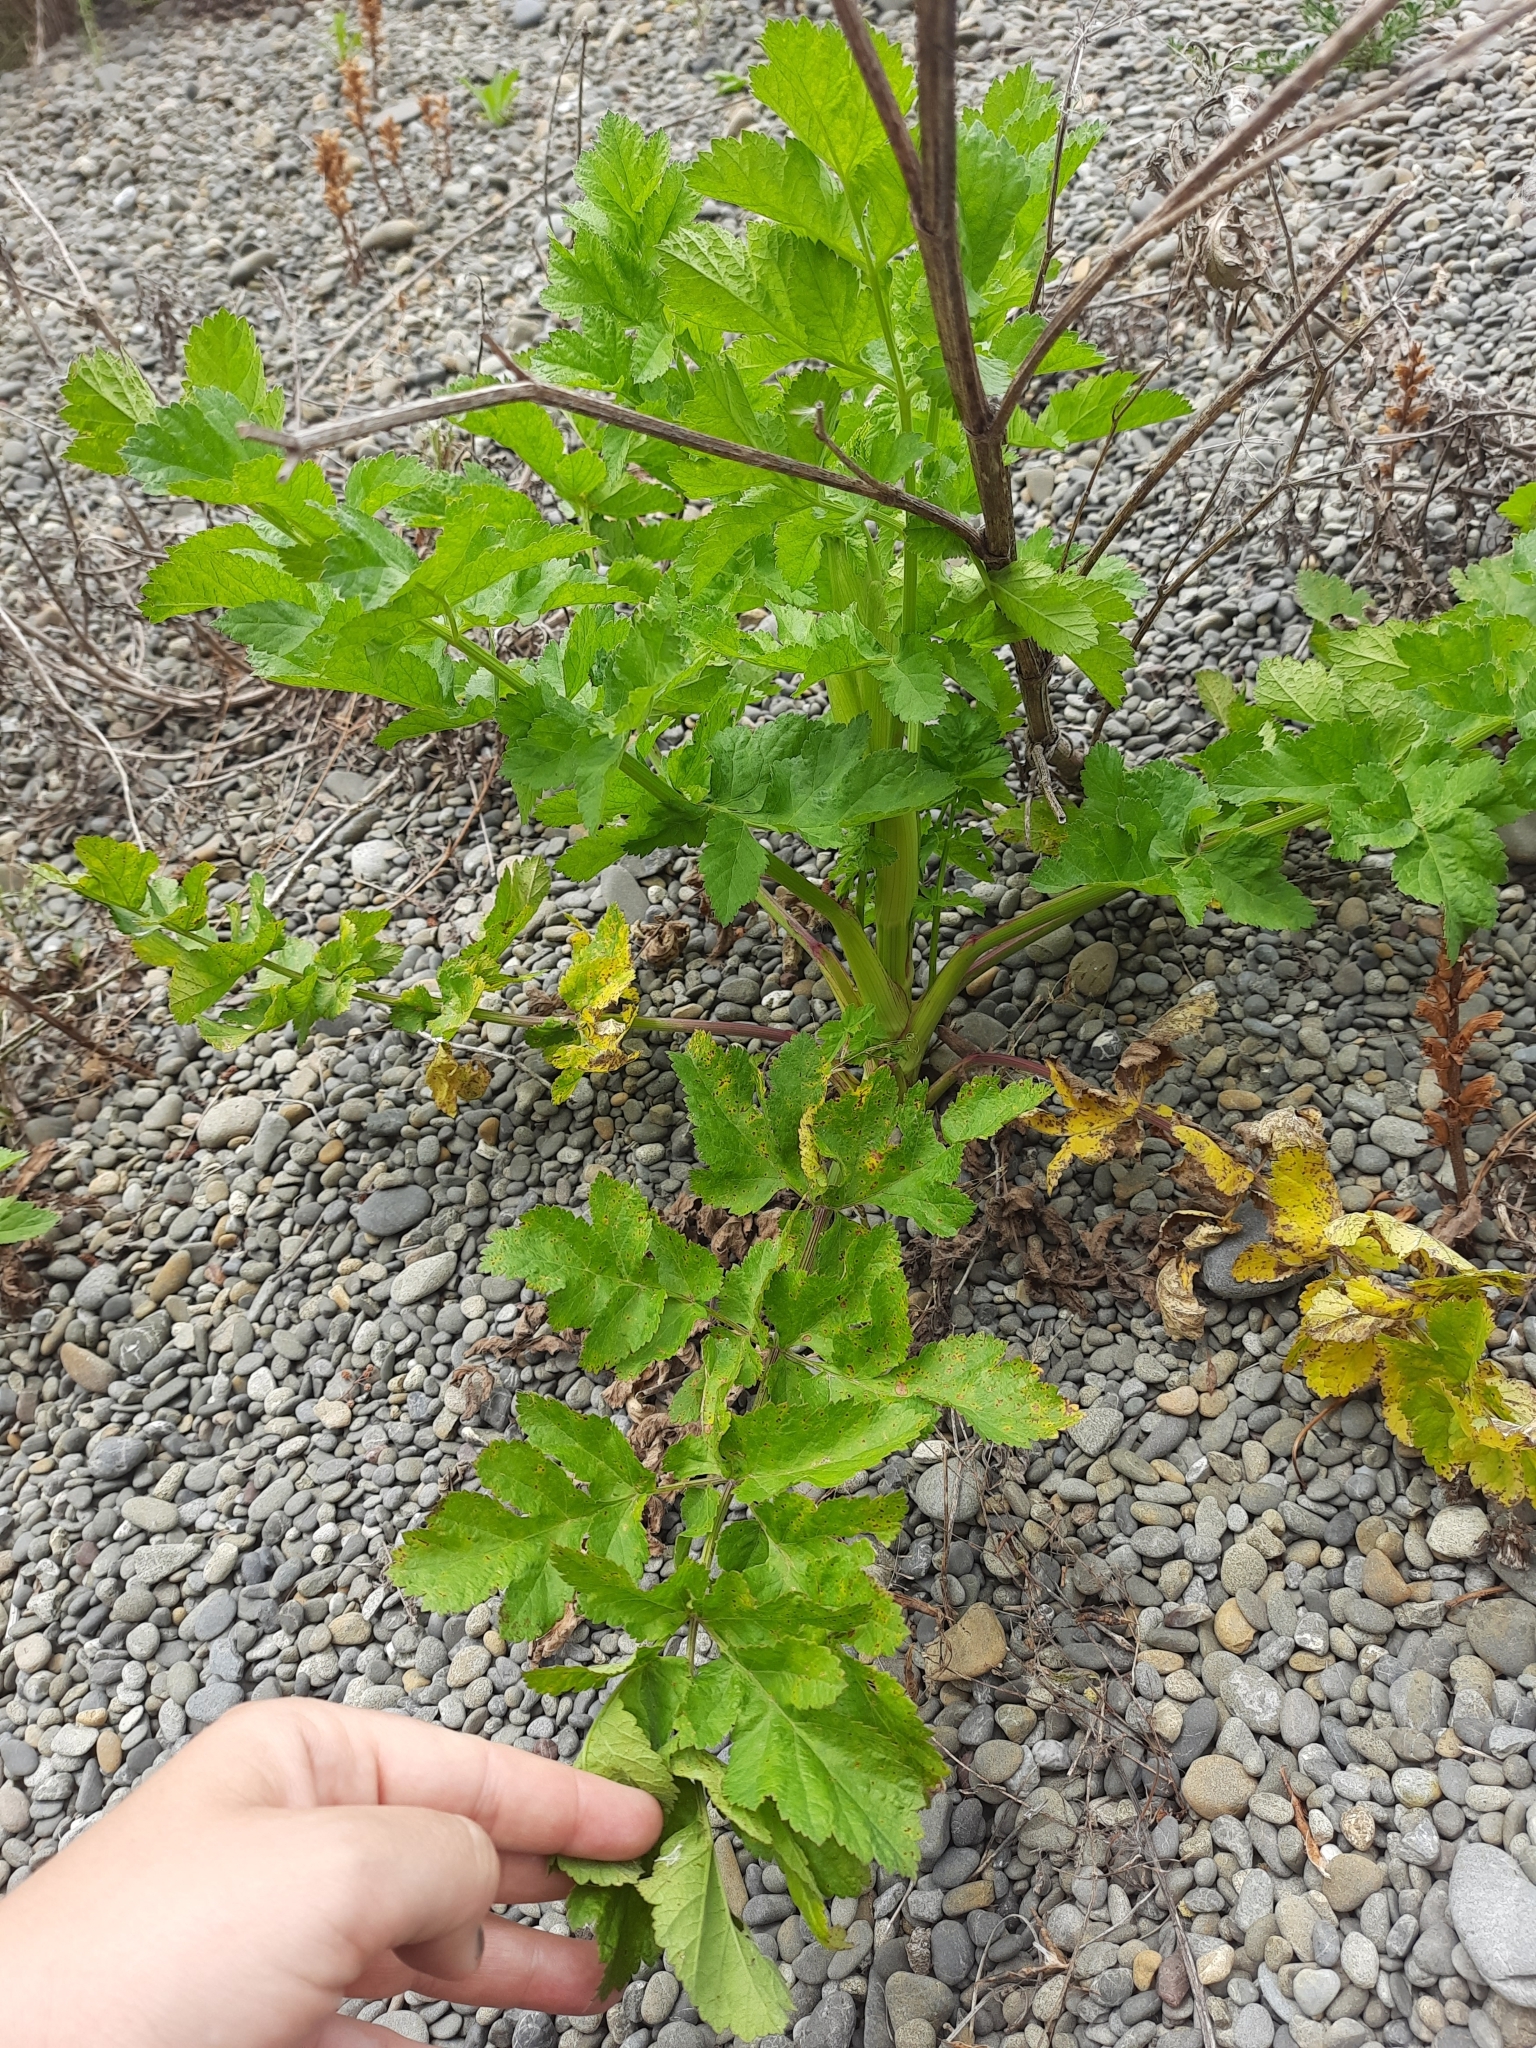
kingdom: Plantae
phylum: Tracheophyta
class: Magnoliopsida
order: Apiales
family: Apiaceae
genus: Pastinaca
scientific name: Pastinaca sativa
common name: Wild parsnip
